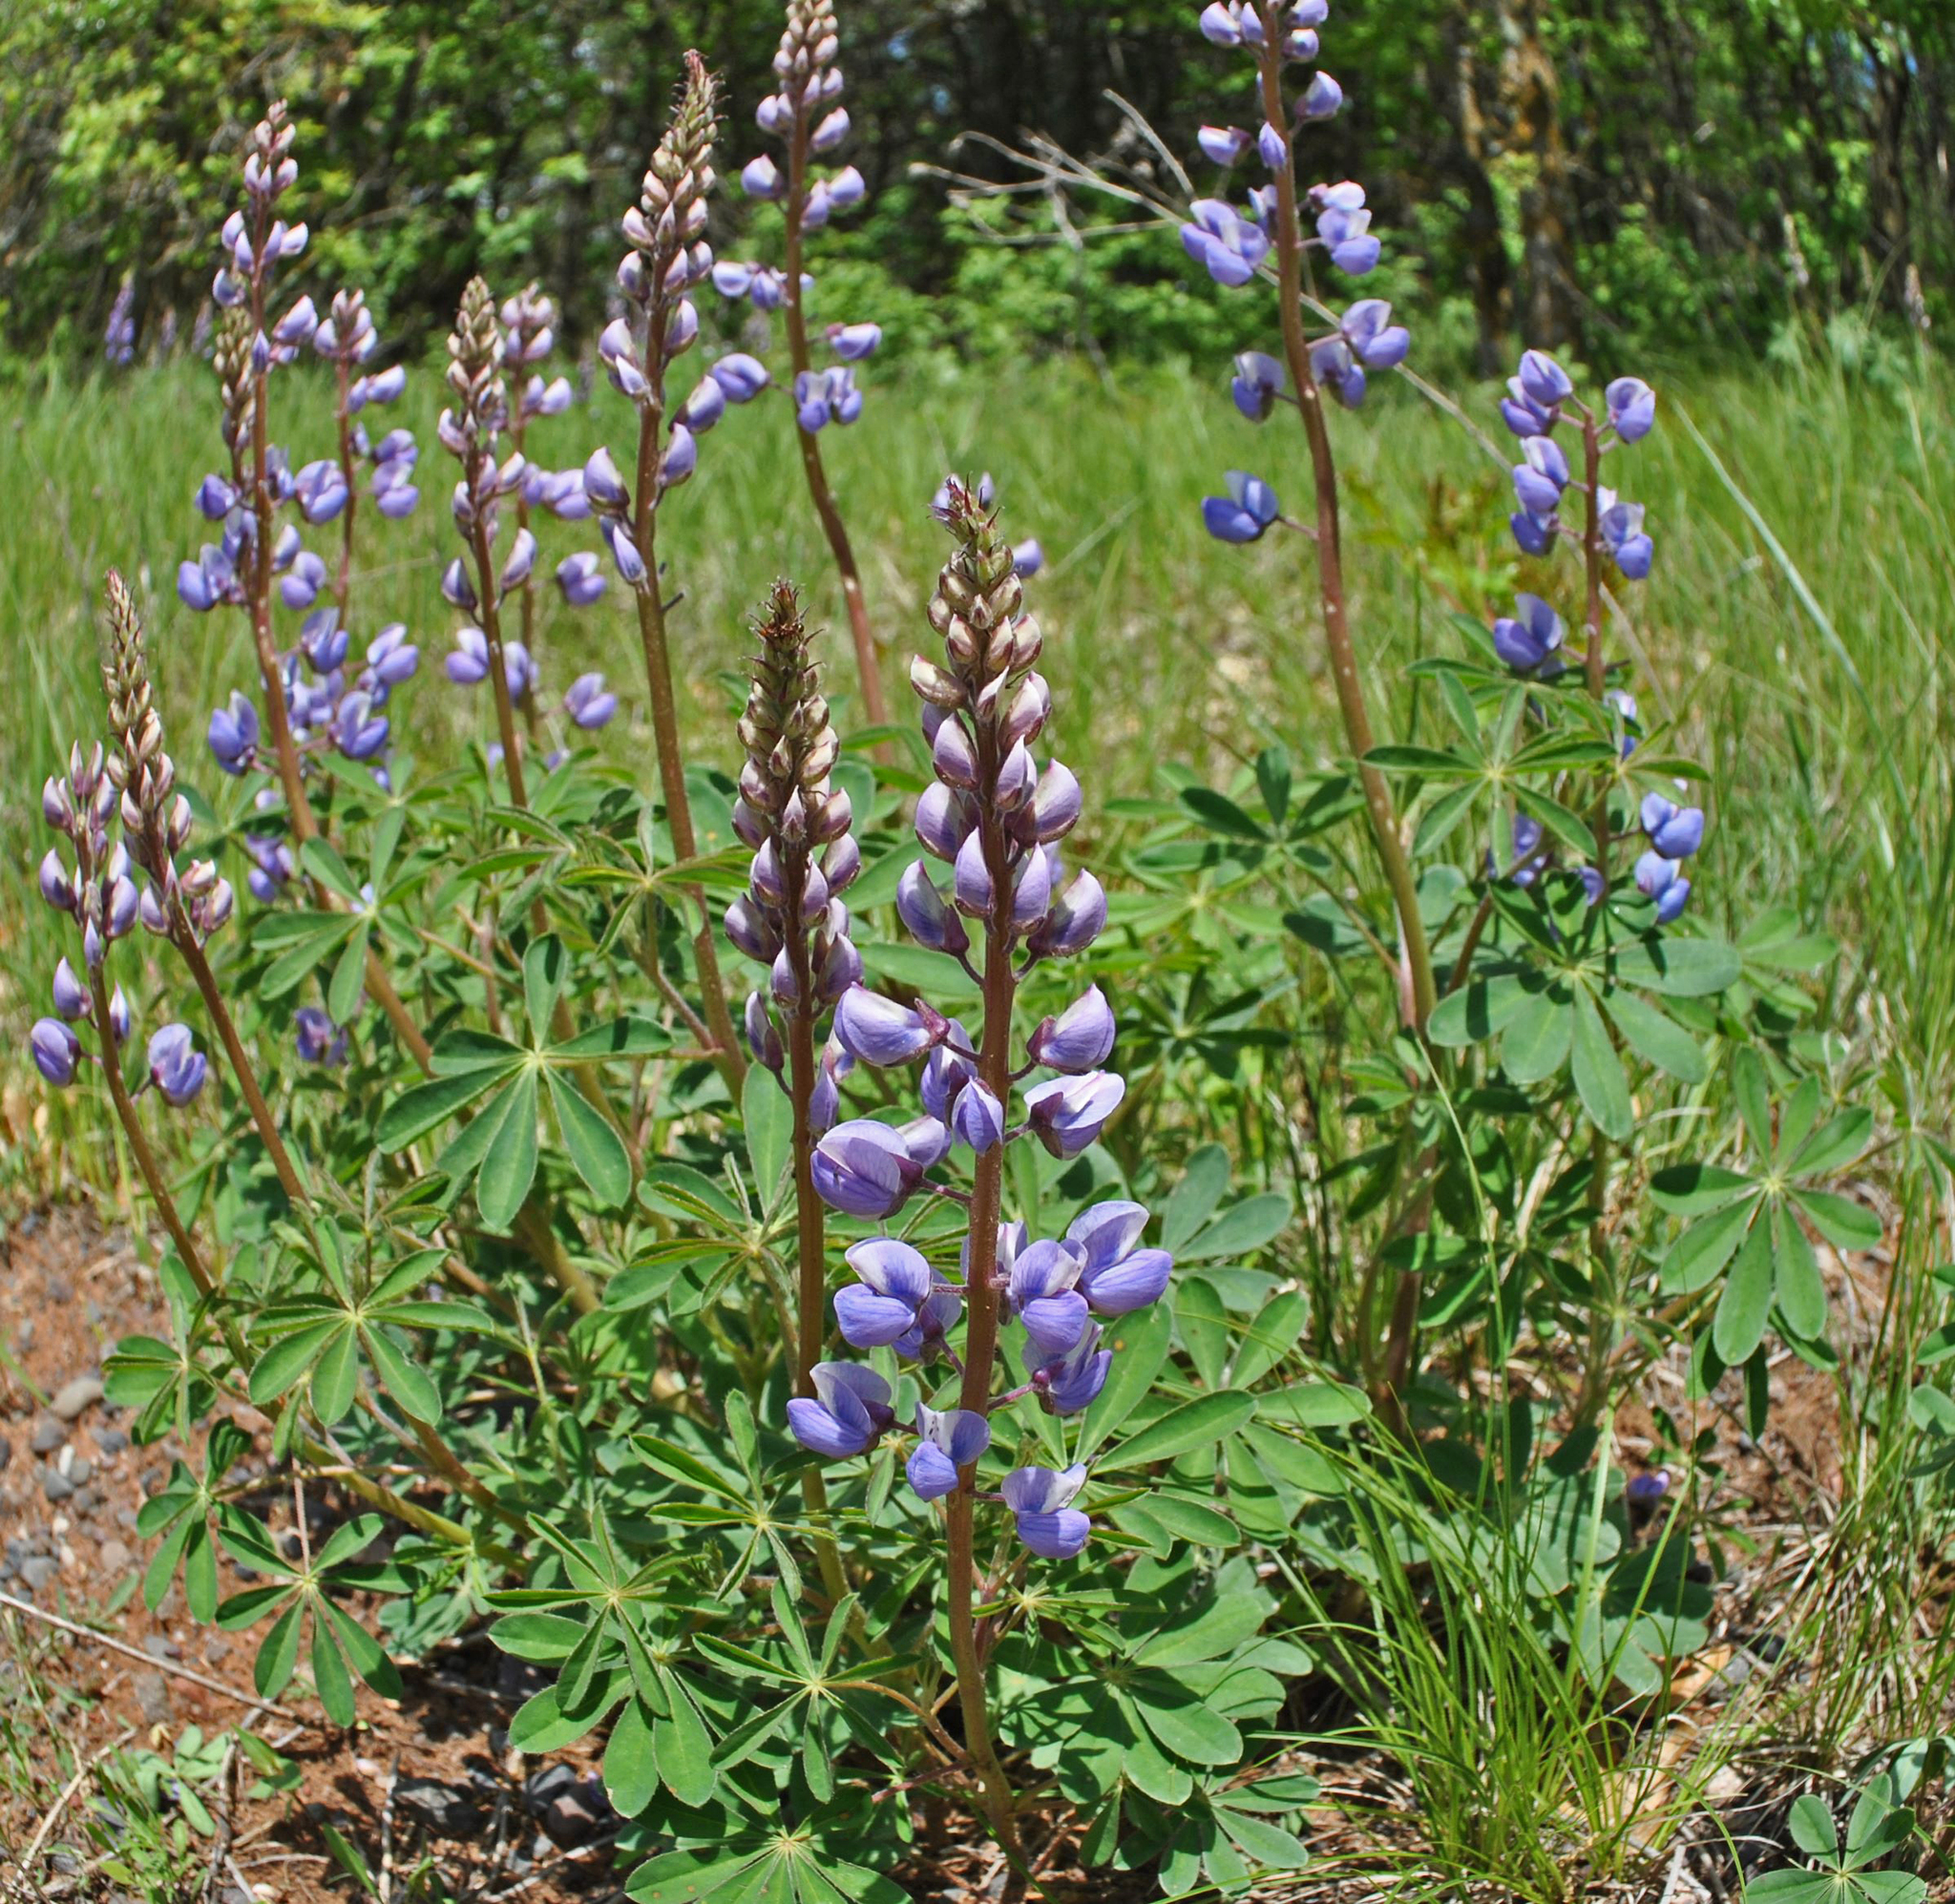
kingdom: Plantae
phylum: Tracheophyta
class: Magnoliopsida
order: Fabales
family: Fabaceae
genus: Lupinus
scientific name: Lupinus perennis
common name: Sundial lupine
